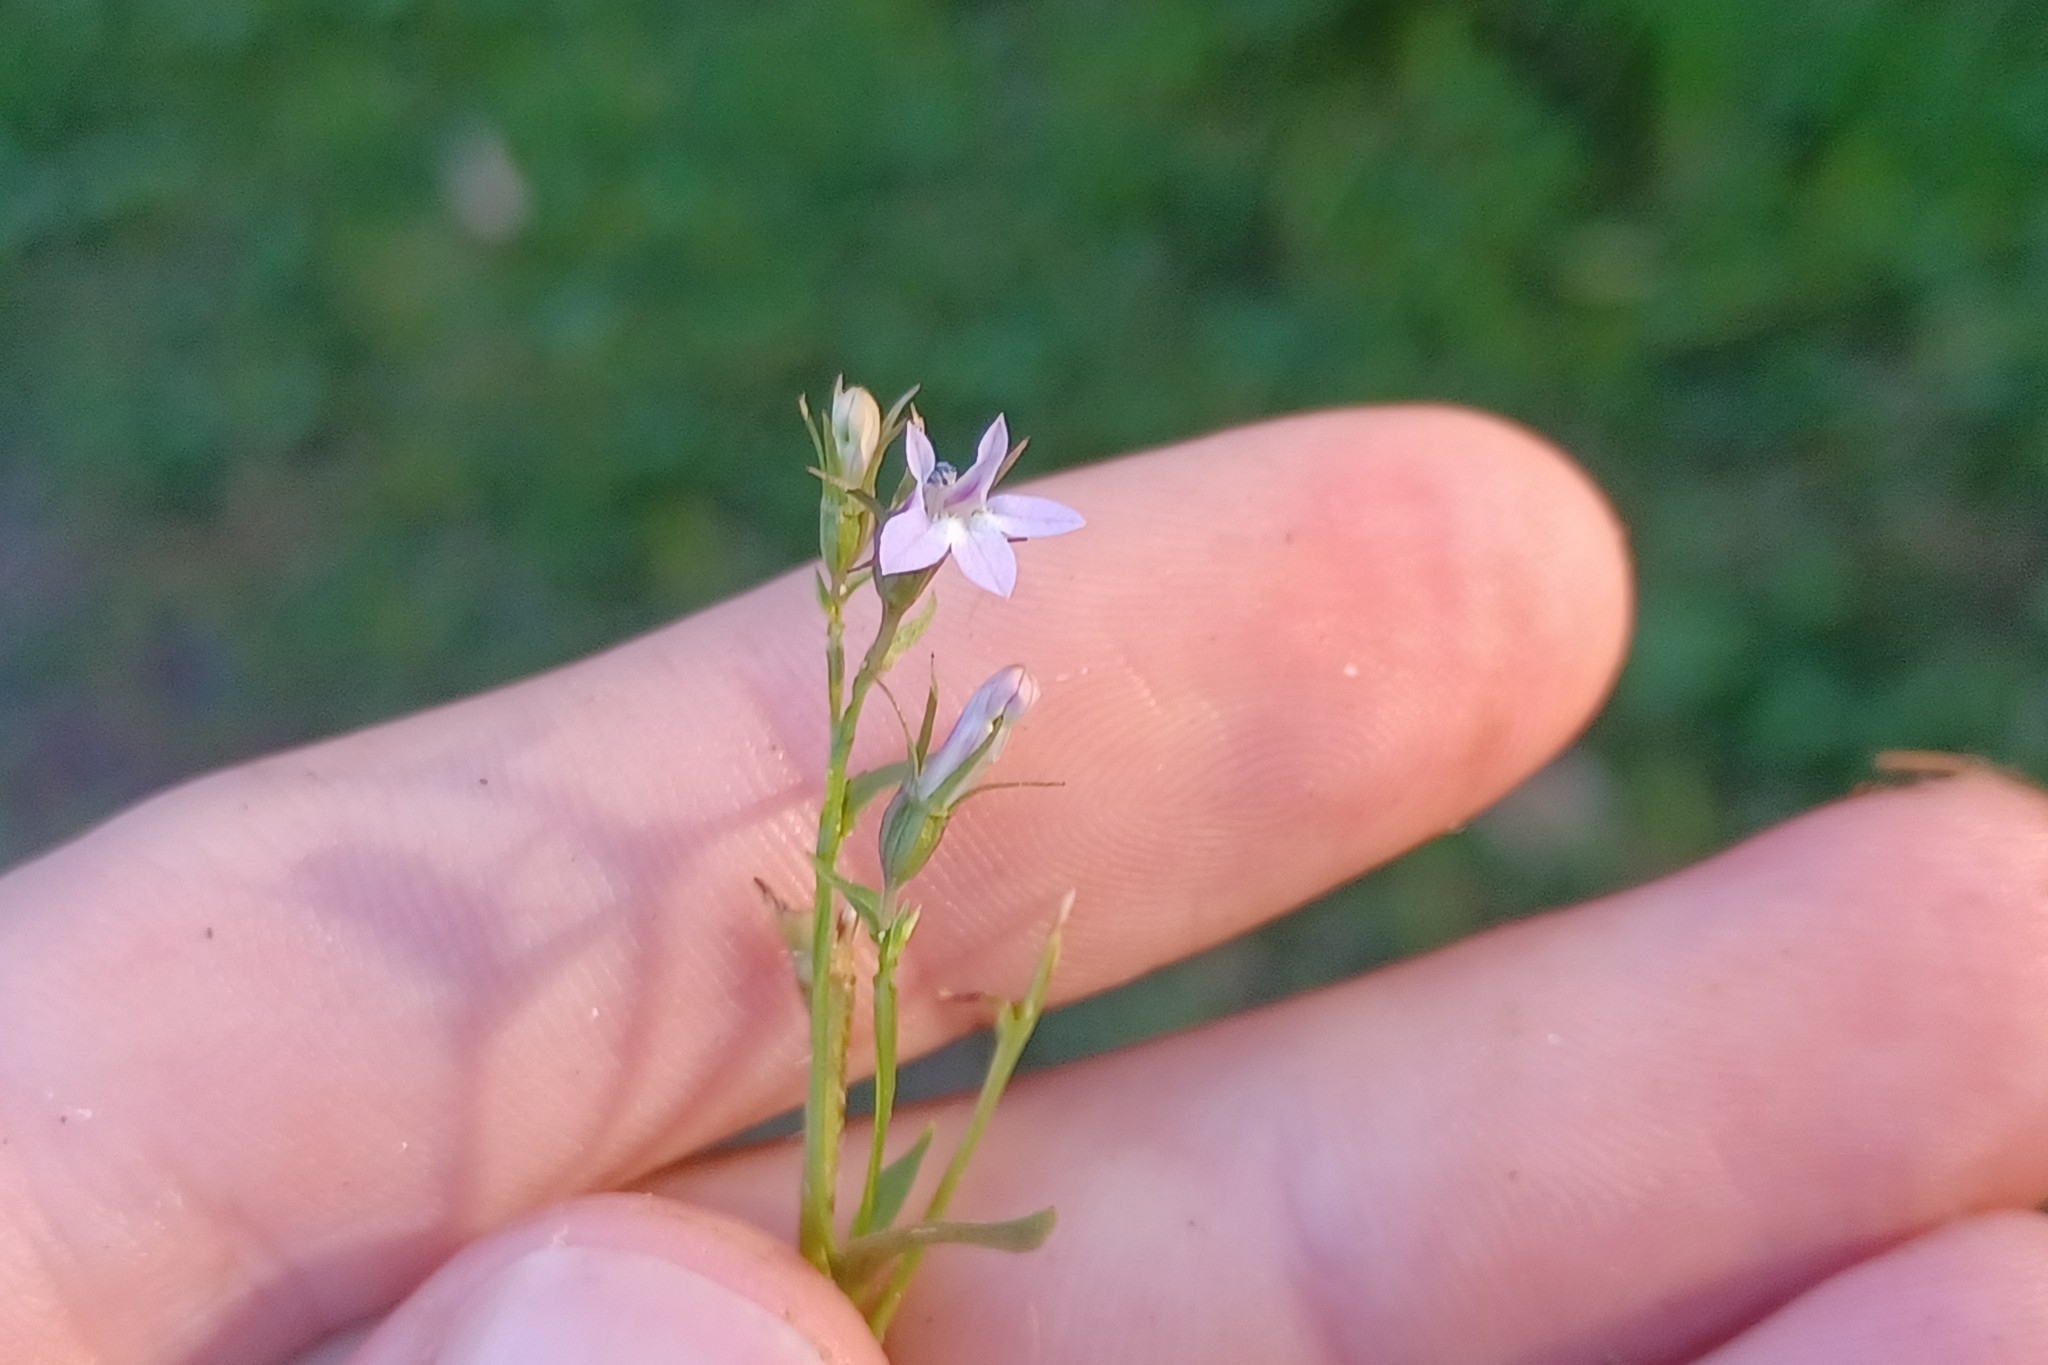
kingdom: Plantae
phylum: Tracheophyta
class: Magnoliopsida
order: Asterales
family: Campanulaceae
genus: Lobelia
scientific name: Lobelia inflata
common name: Indian tobacco
